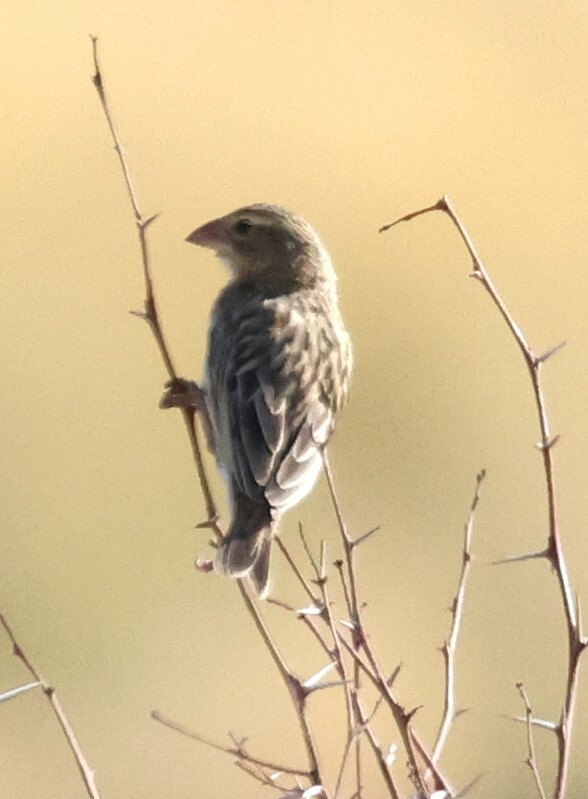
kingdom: Animalia
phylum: Chordata
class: Aves
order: Passeriformes
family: Ploceidae
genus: Euplectes
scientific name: Euplectes orix
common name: Southern red bishop
